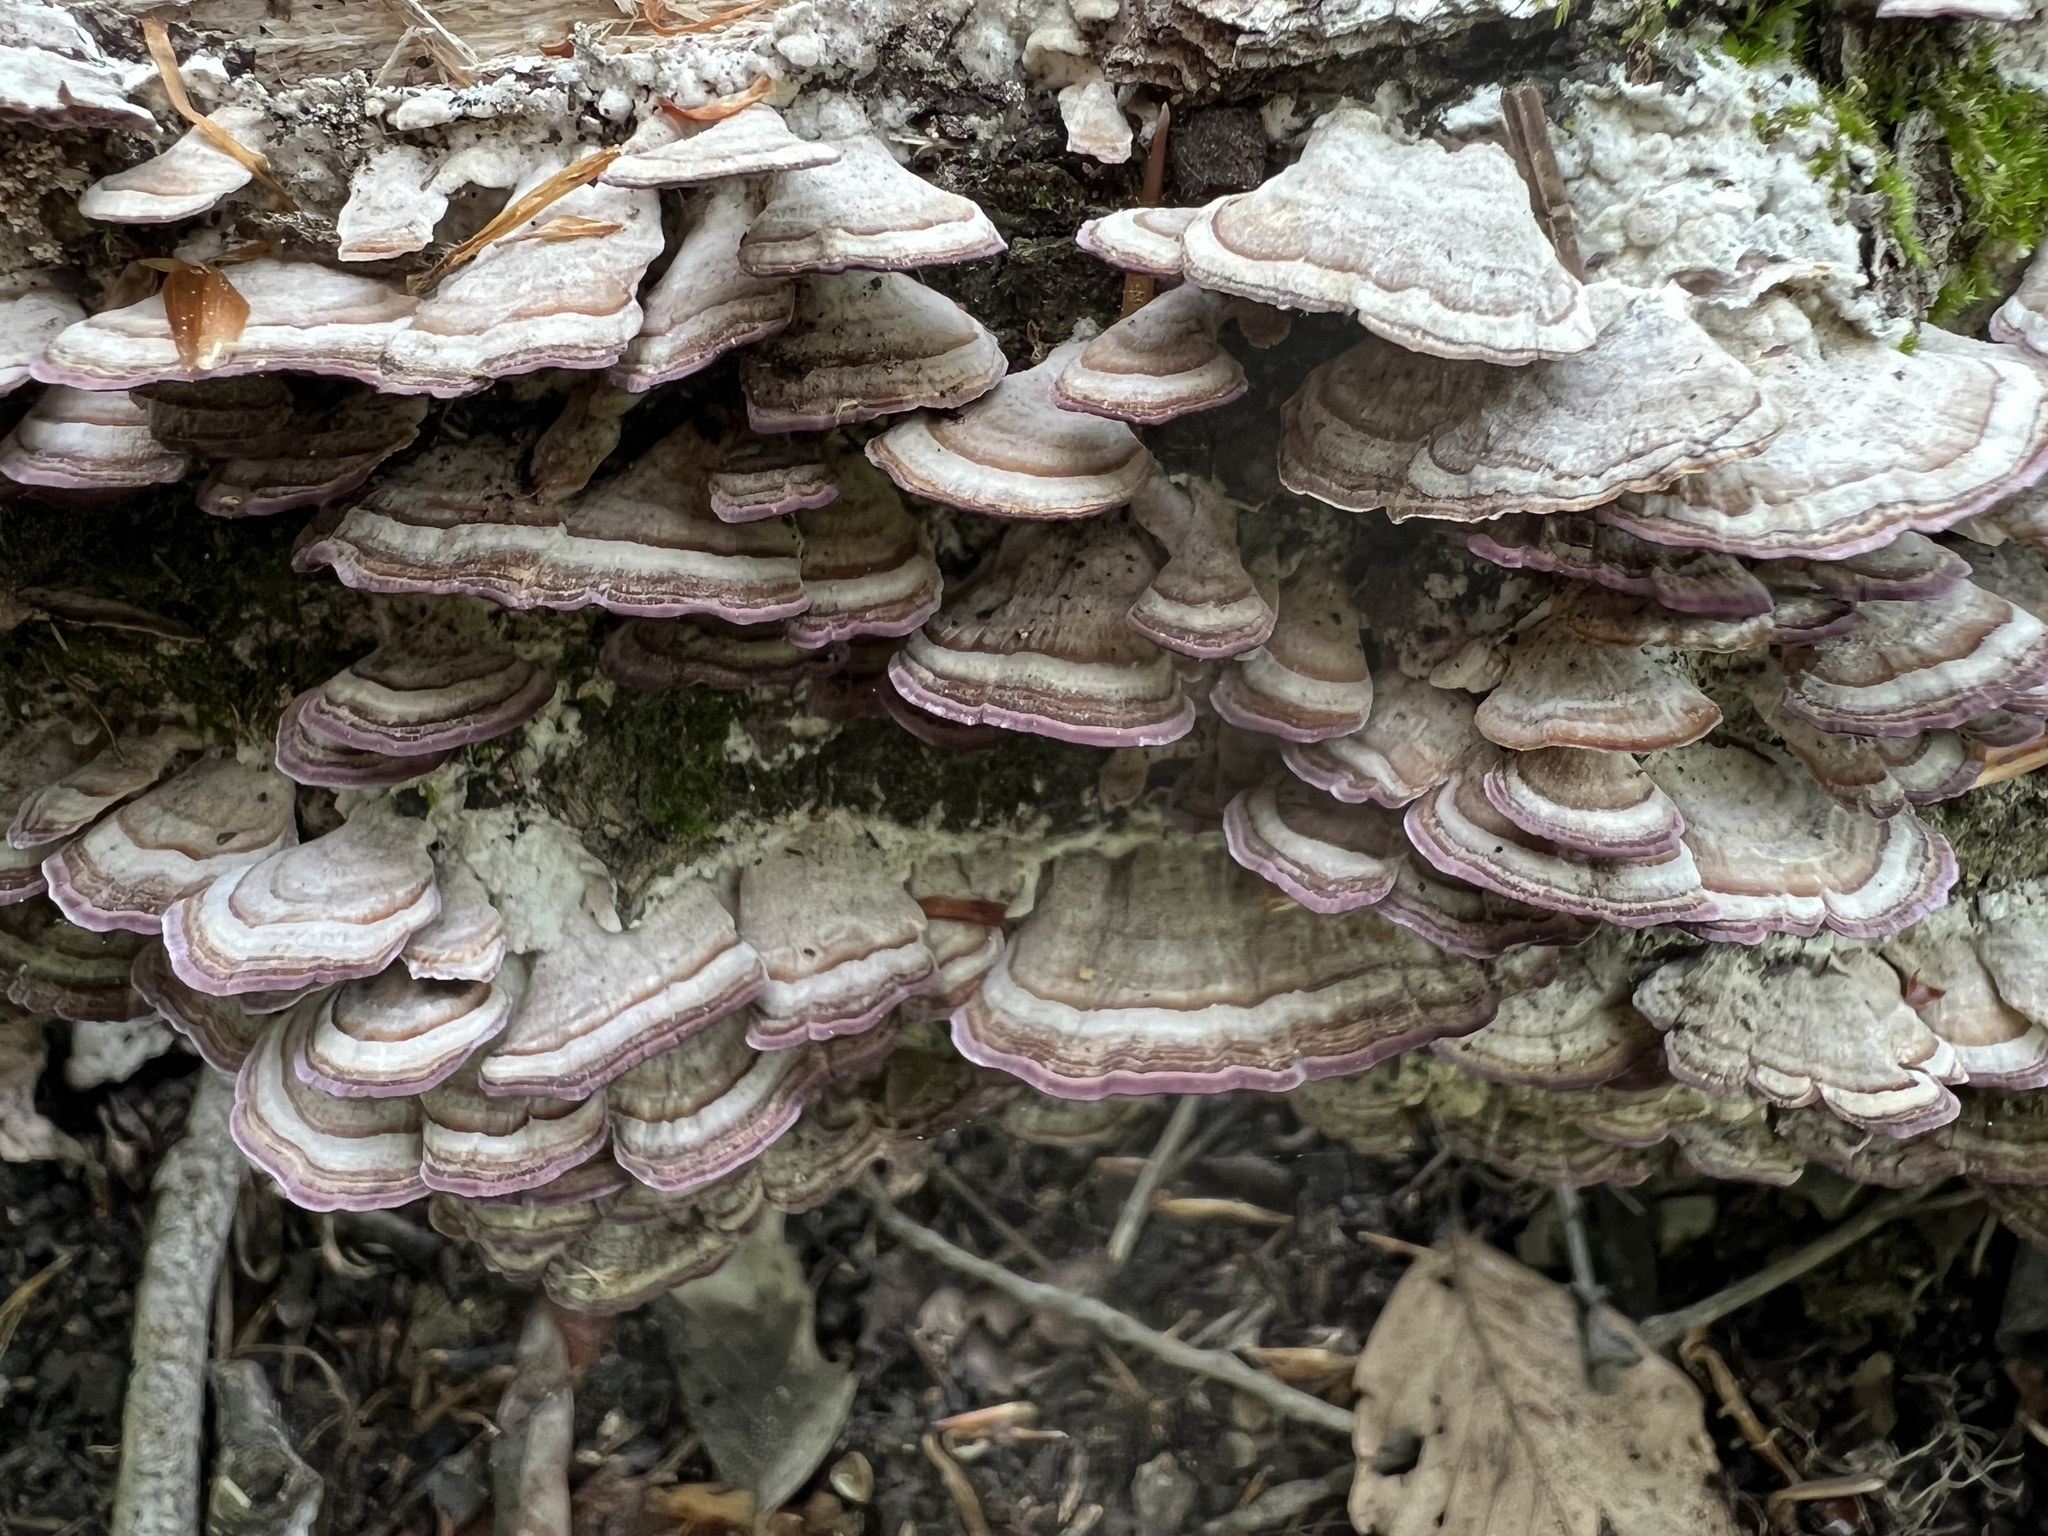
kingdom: Fungi
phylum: Basidiomycota
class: Agaricomycetes
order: Hymenochaetales
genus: Trichaptum
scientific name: Trichaptum biforme
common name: Violet-toothed polypore
